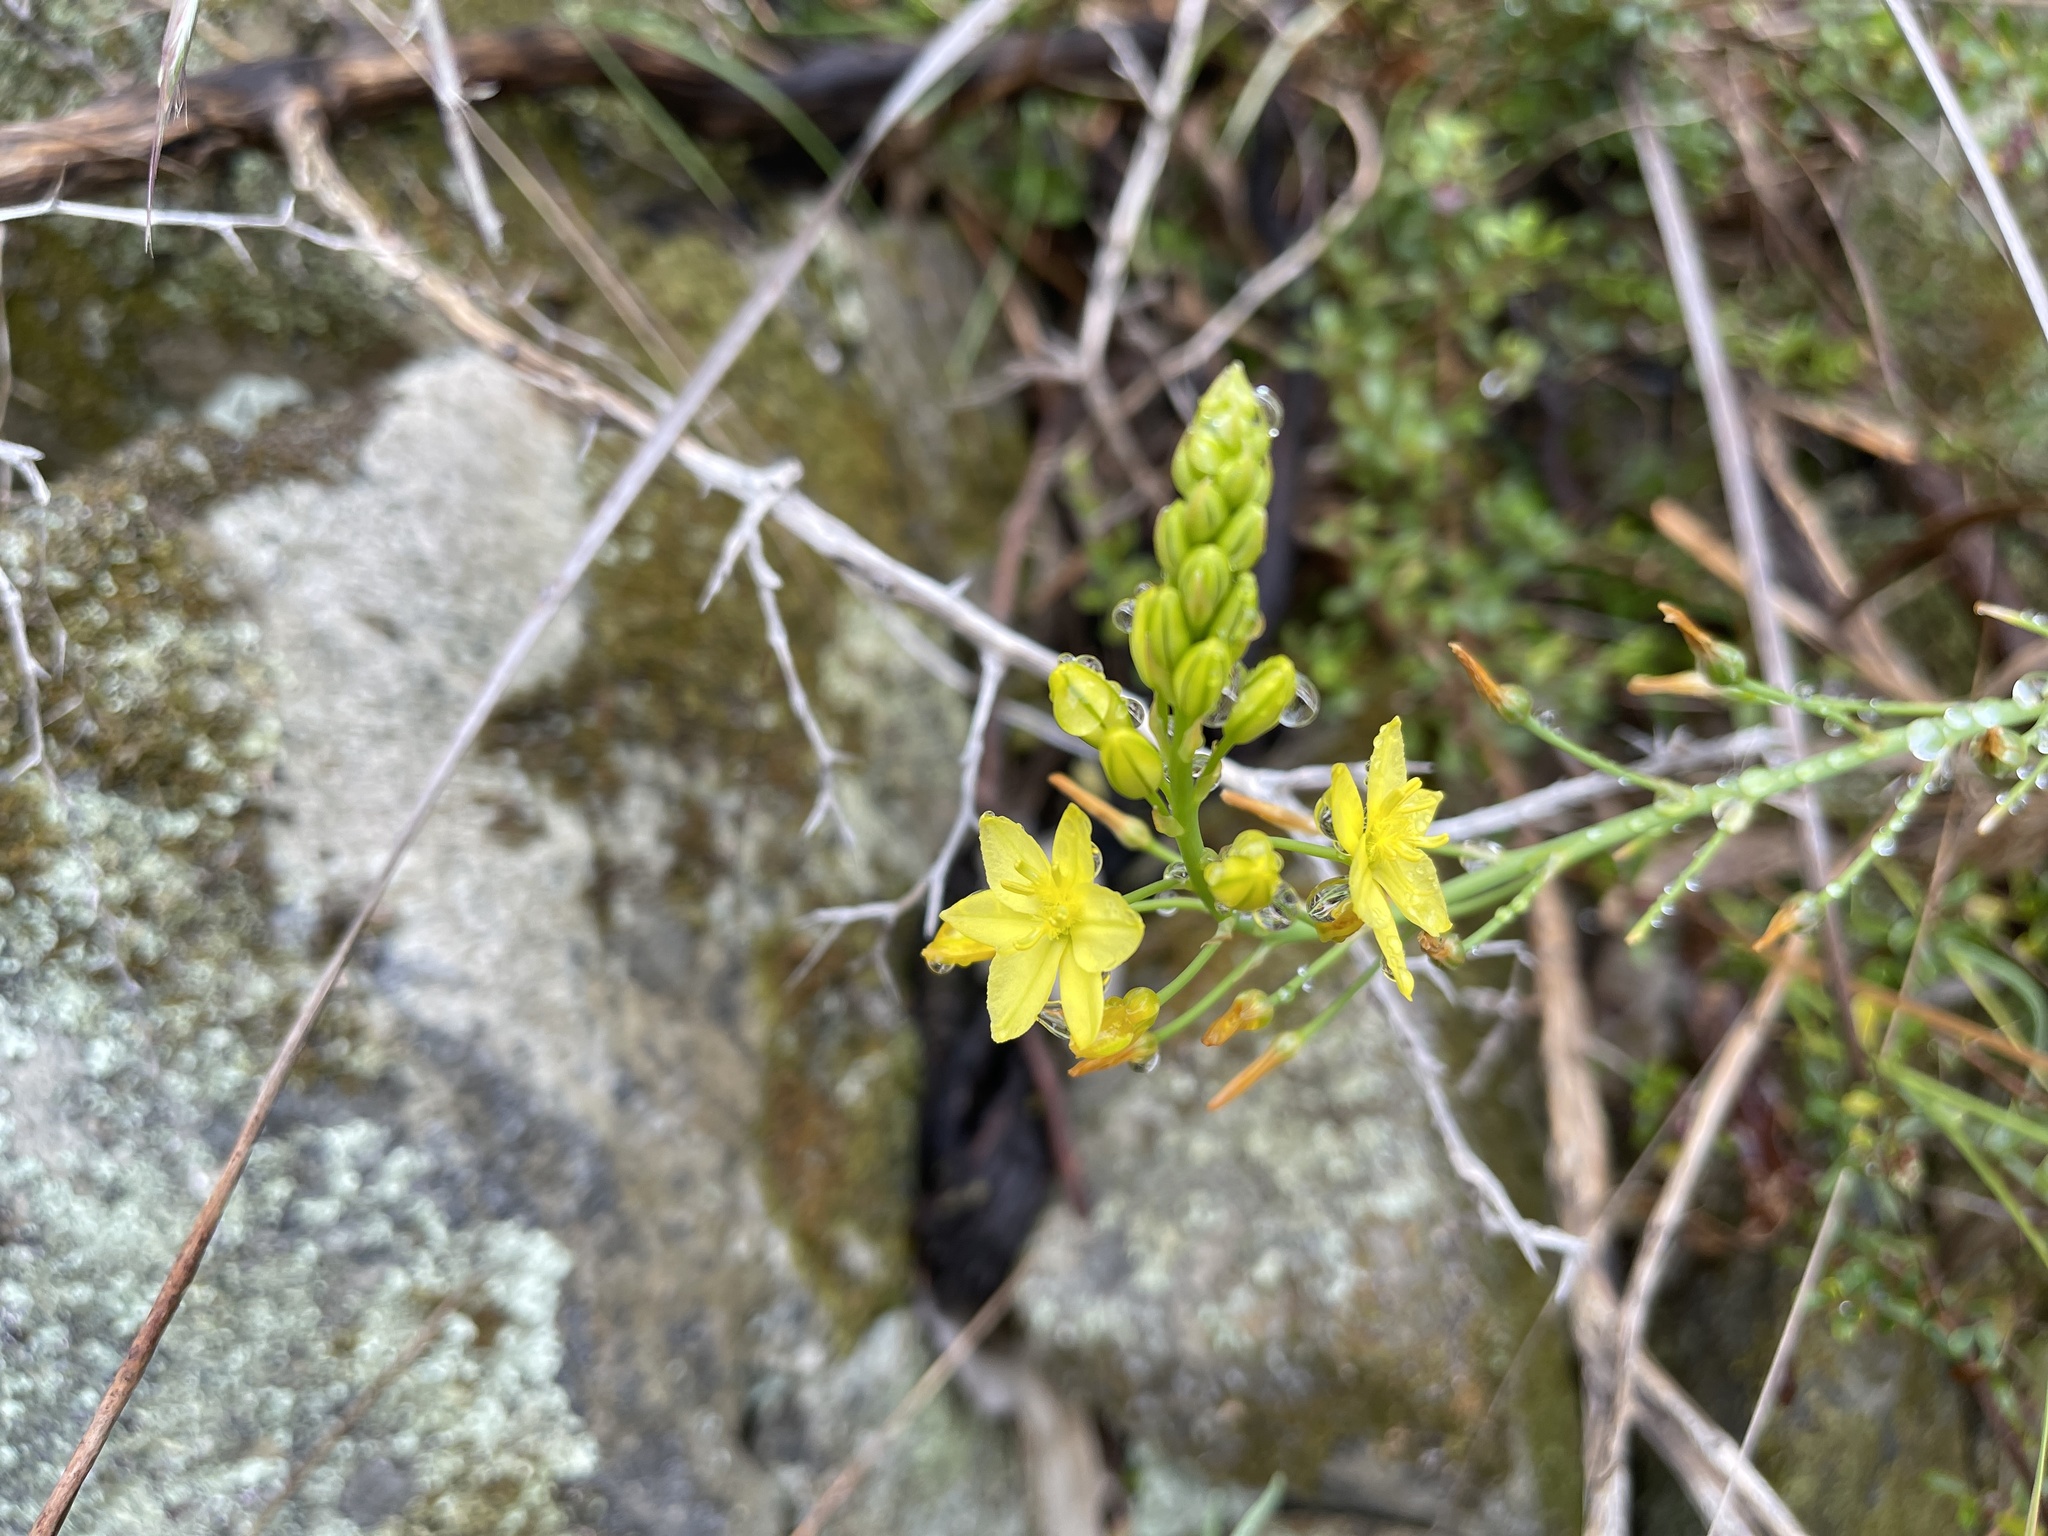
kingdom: Plantae
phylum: Tracheophyta
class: Liliopsida
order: Asparagales
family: Asphodelaceae
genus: Bulbine
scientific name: Bulbine bulbosa
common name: Golden-lily
